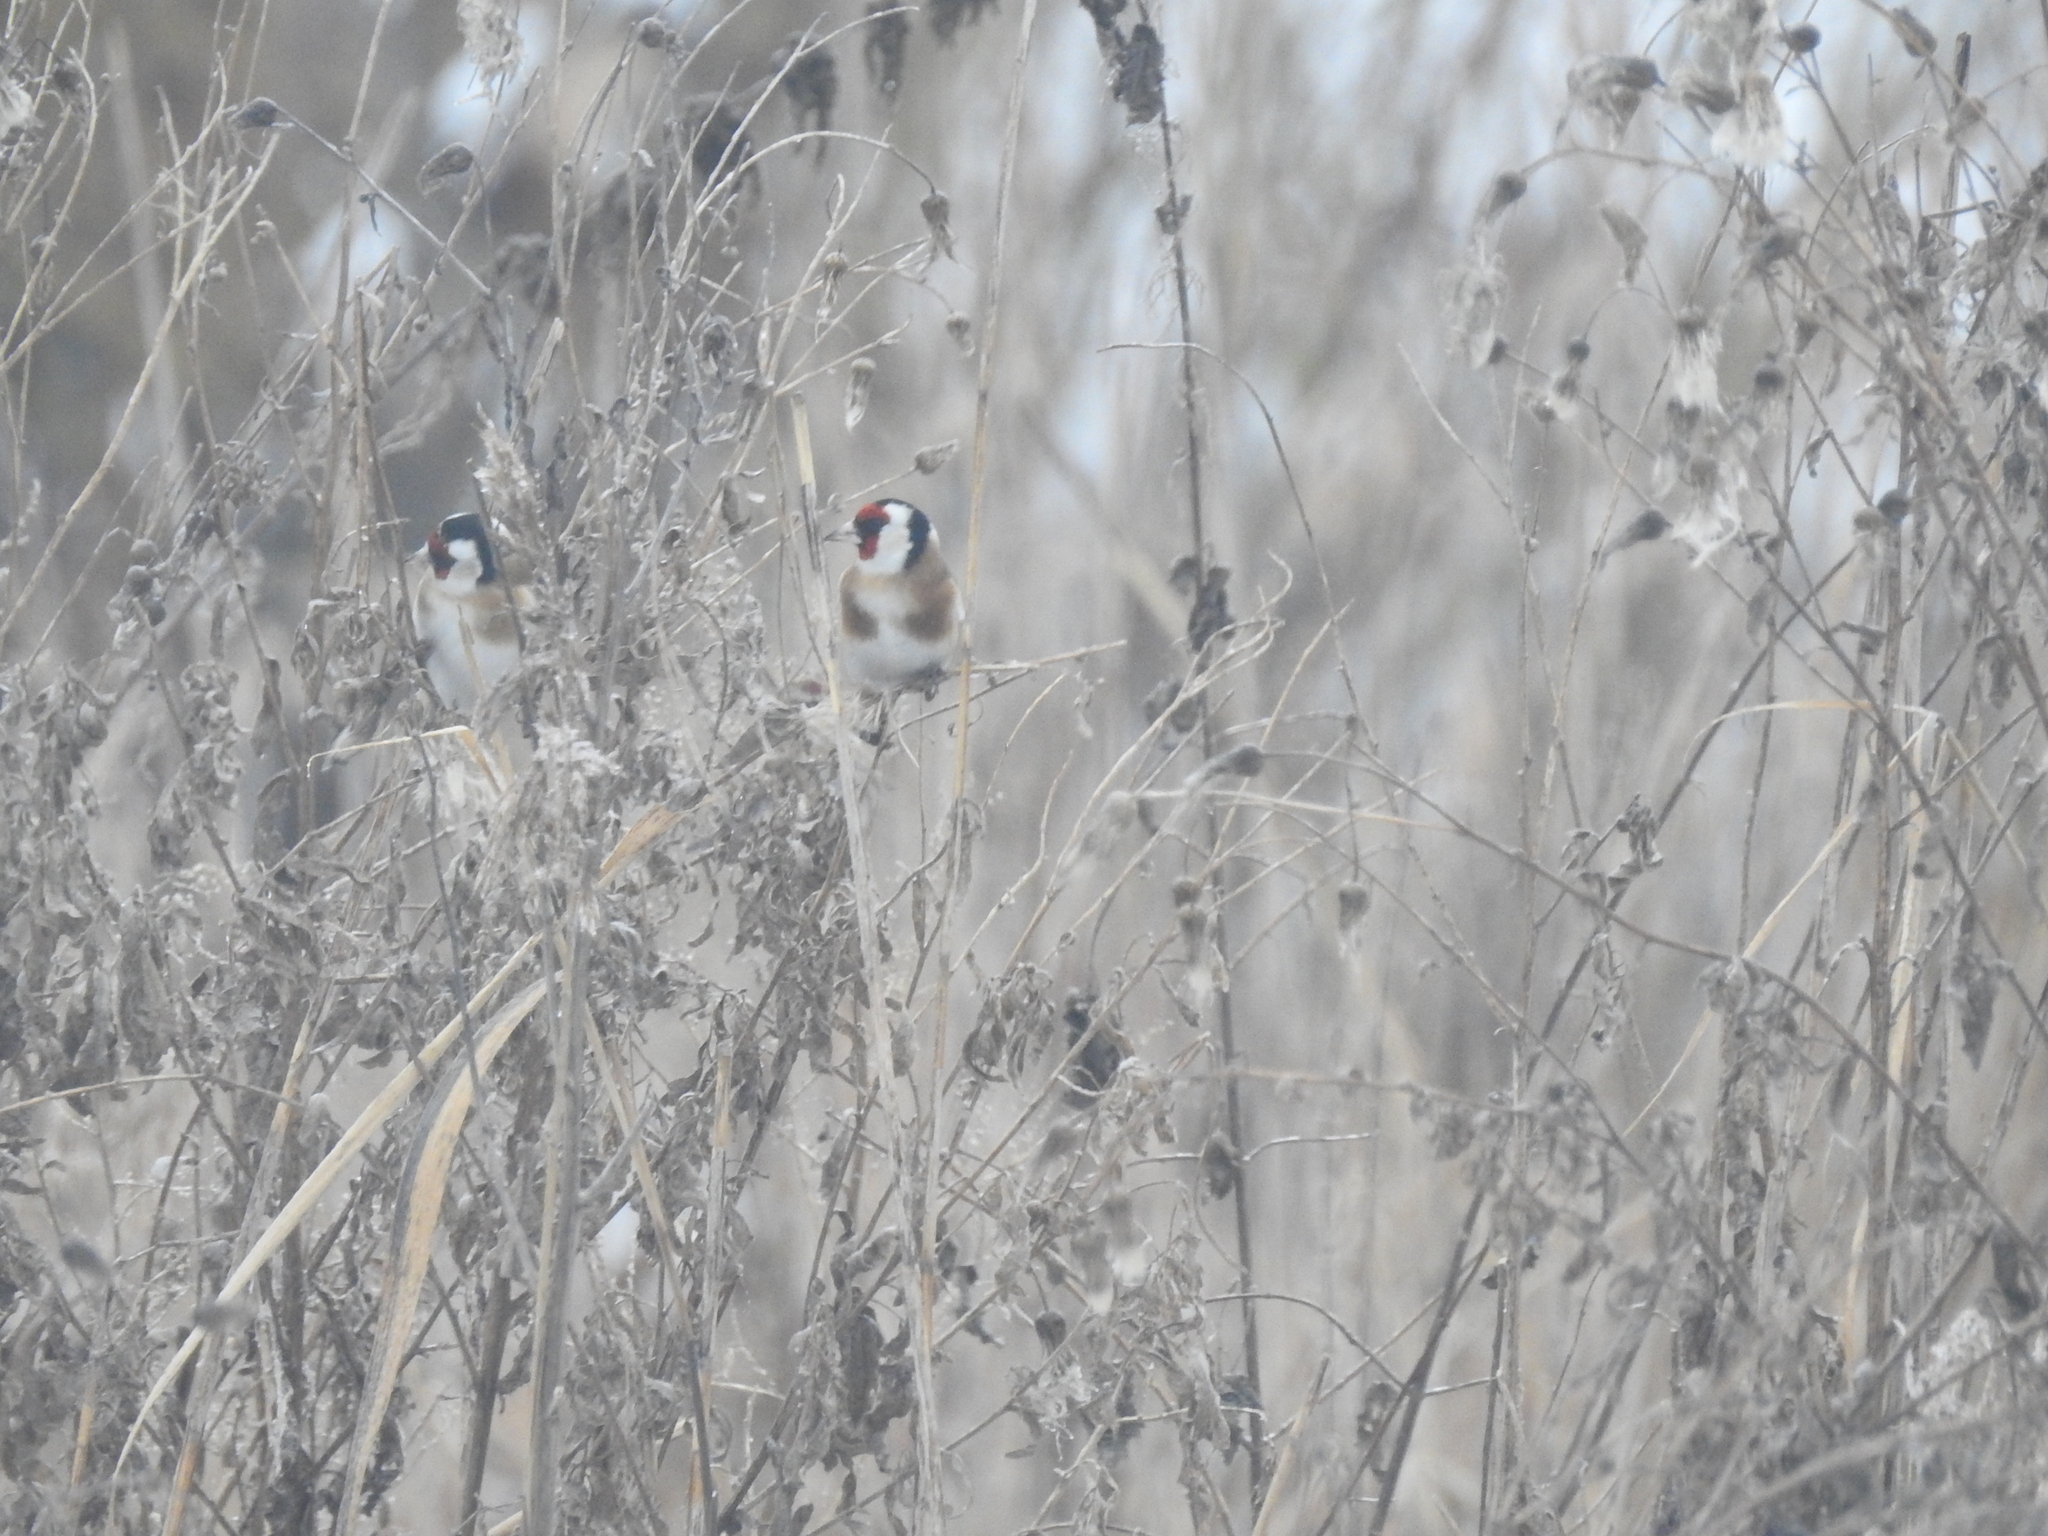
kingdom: Animalia
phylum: Chordata
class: Aves
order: Passeriformes
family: Fringillidae
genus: Carduelis
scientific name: Carduelis carduelis
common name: European goldfinch
